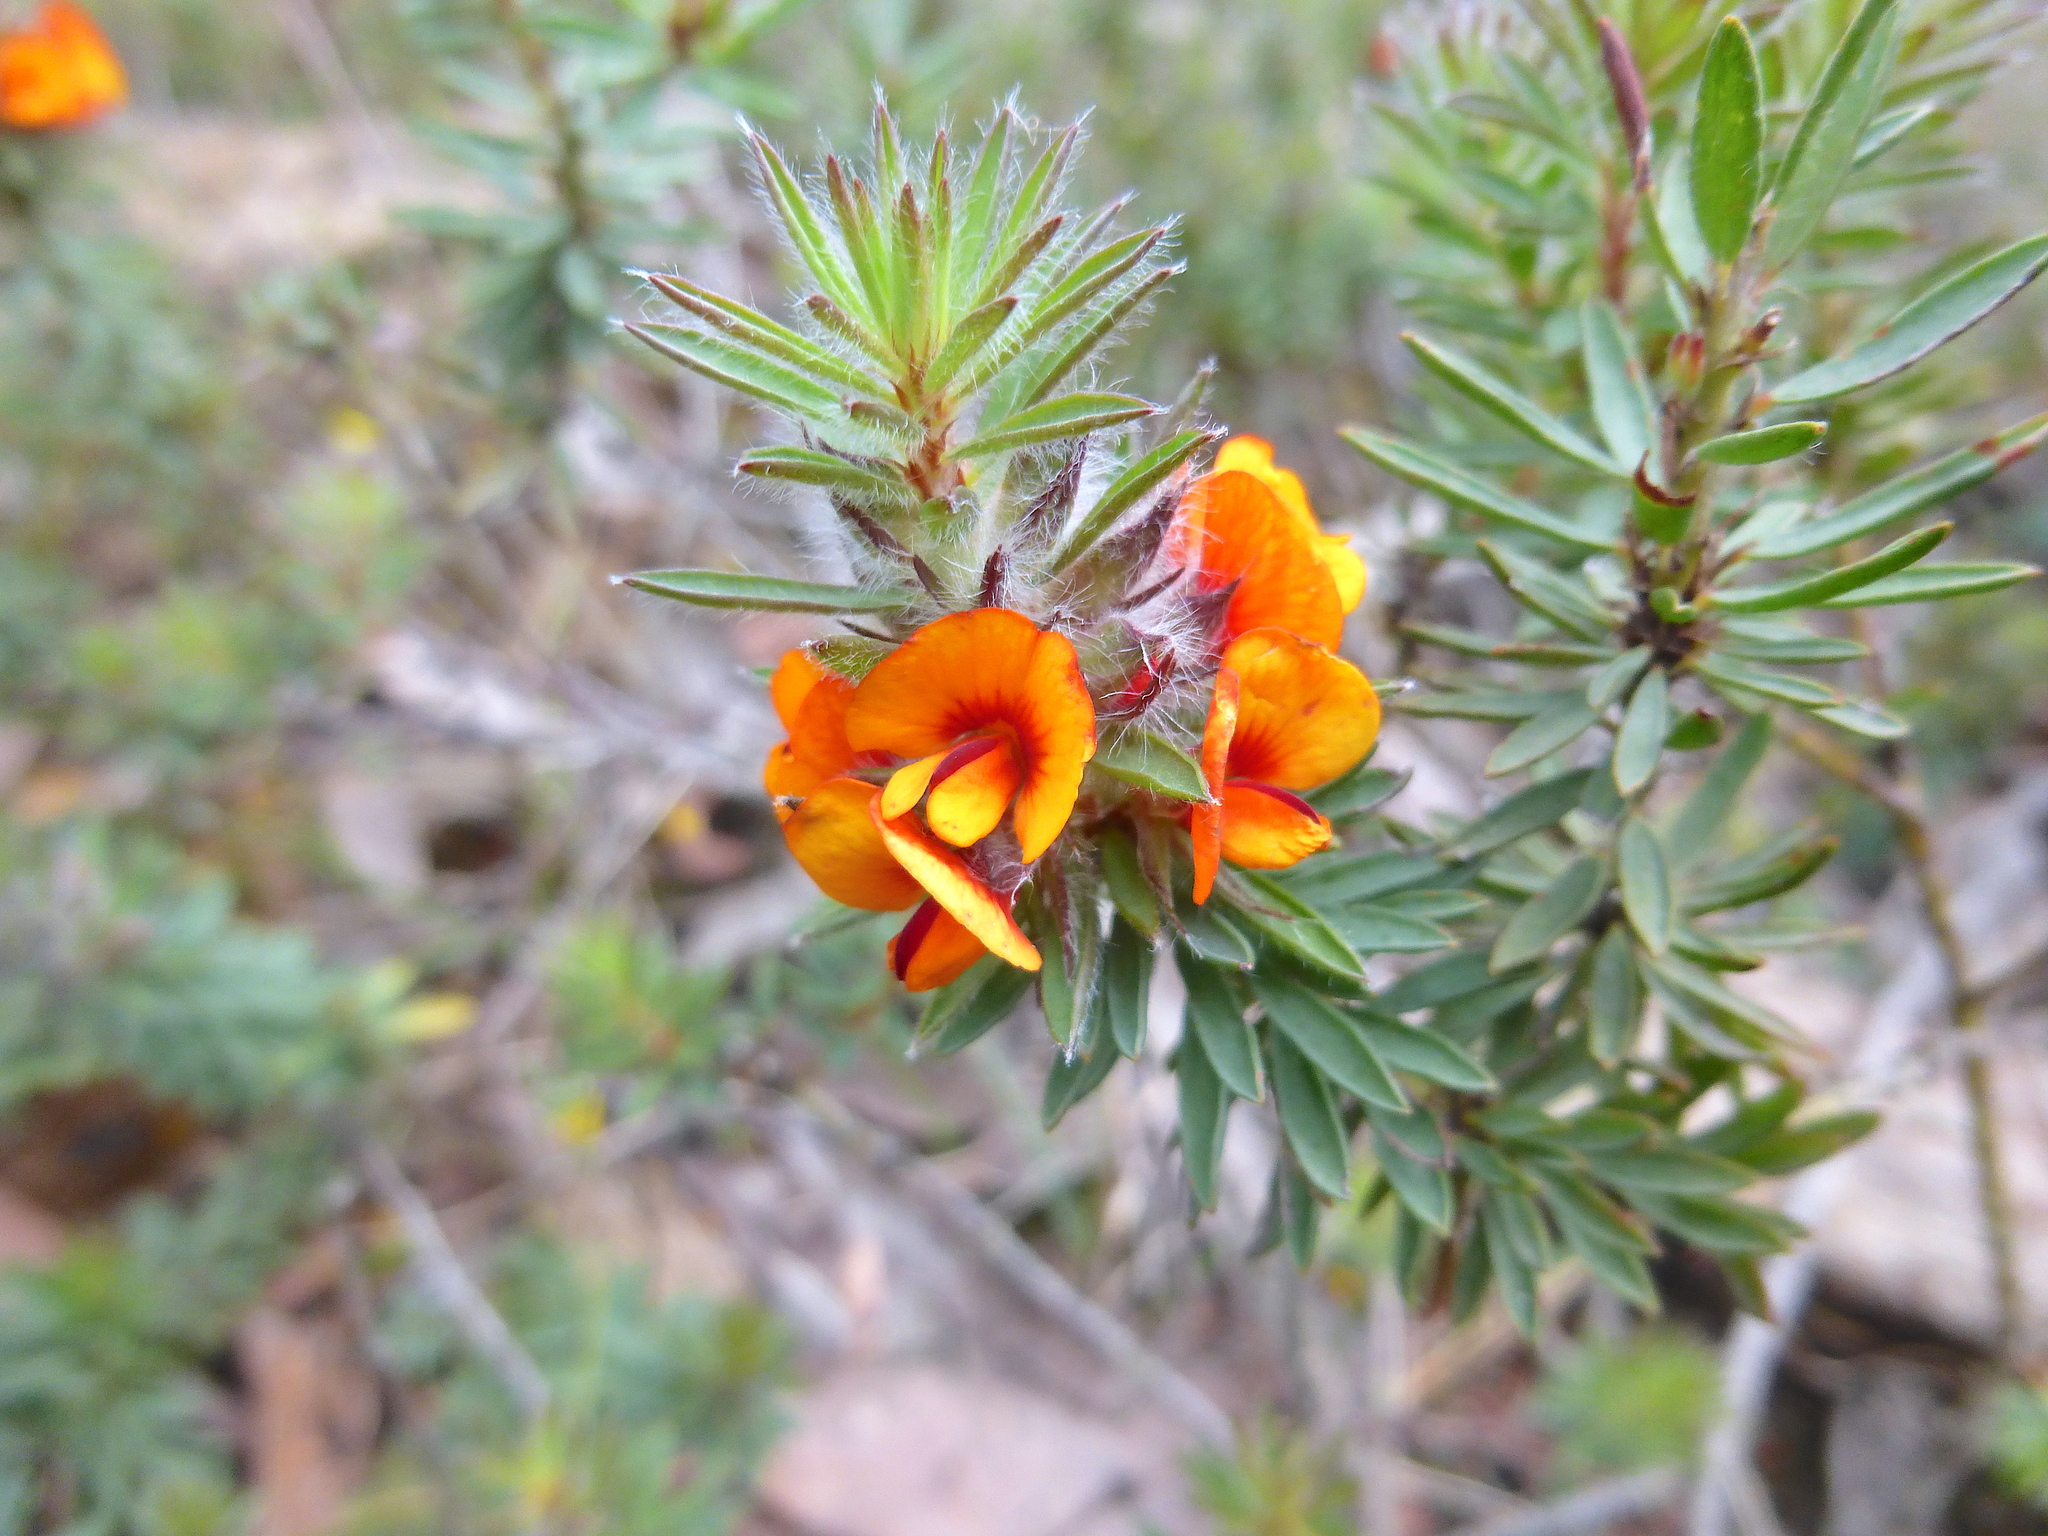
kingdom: Plantae
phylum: Tracheophyta
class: Magnoliopsida
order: Fabales
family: Fabaceae
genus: Pultenaea
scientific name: Pultenaea humilis
